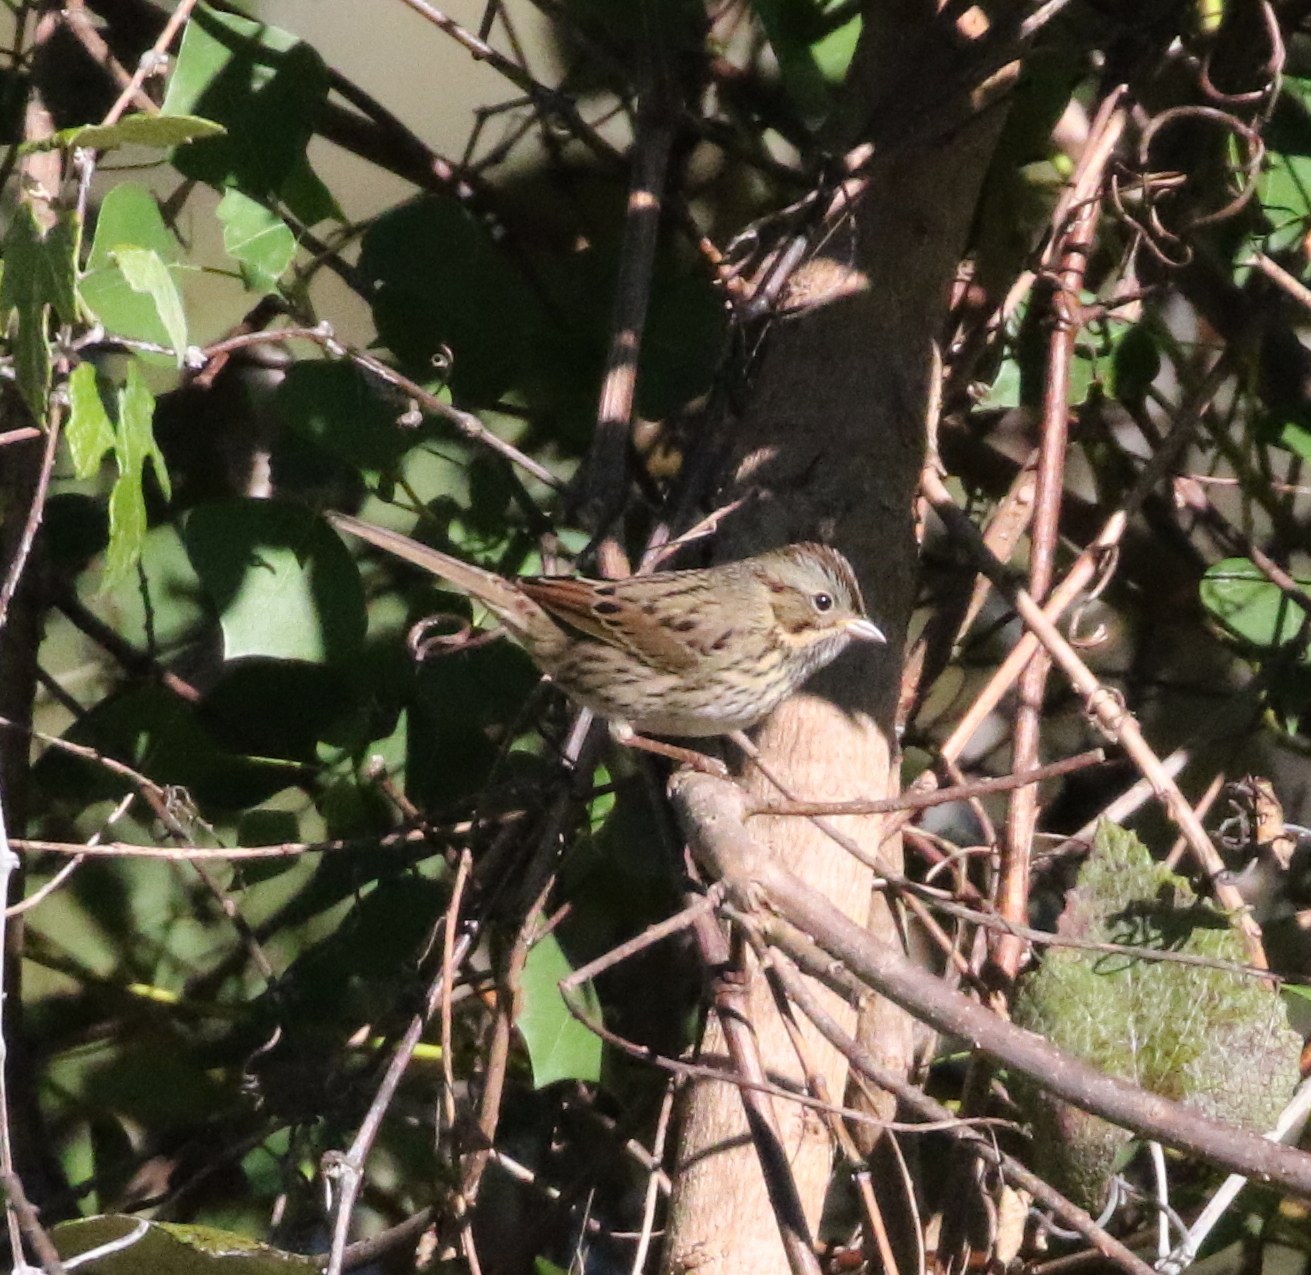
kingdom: Animalia
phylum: Chordata
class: Aves
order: Passeriformes
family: Passerellidae
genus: Melospiza
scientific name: Melospiza lincolnii
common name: Lincoln's sparrow
